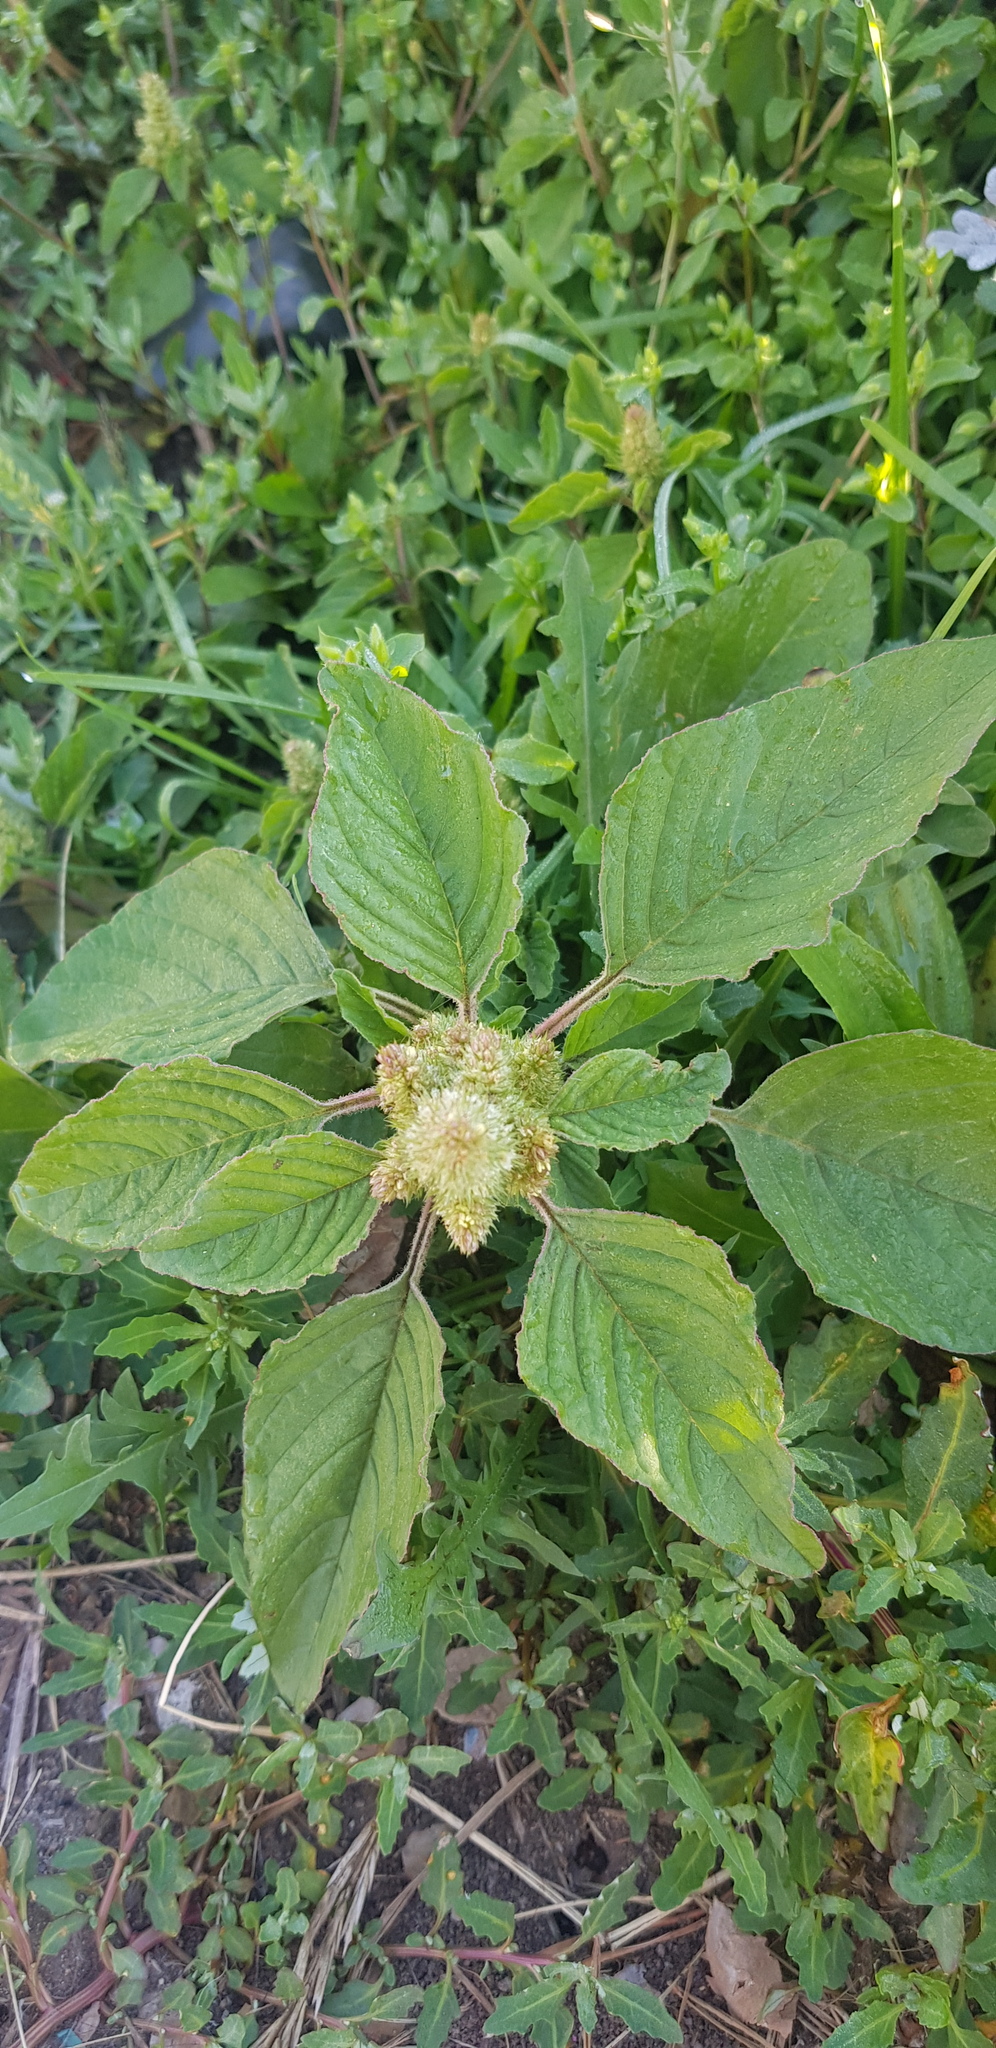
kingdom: Plantae
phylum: Tracheophyta
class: Magnoliopsida
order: Caryophyllales
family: Amaranthaceae
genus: Amaranthus
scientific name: Amaranthus retroflexus
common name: Redroot amaranth
